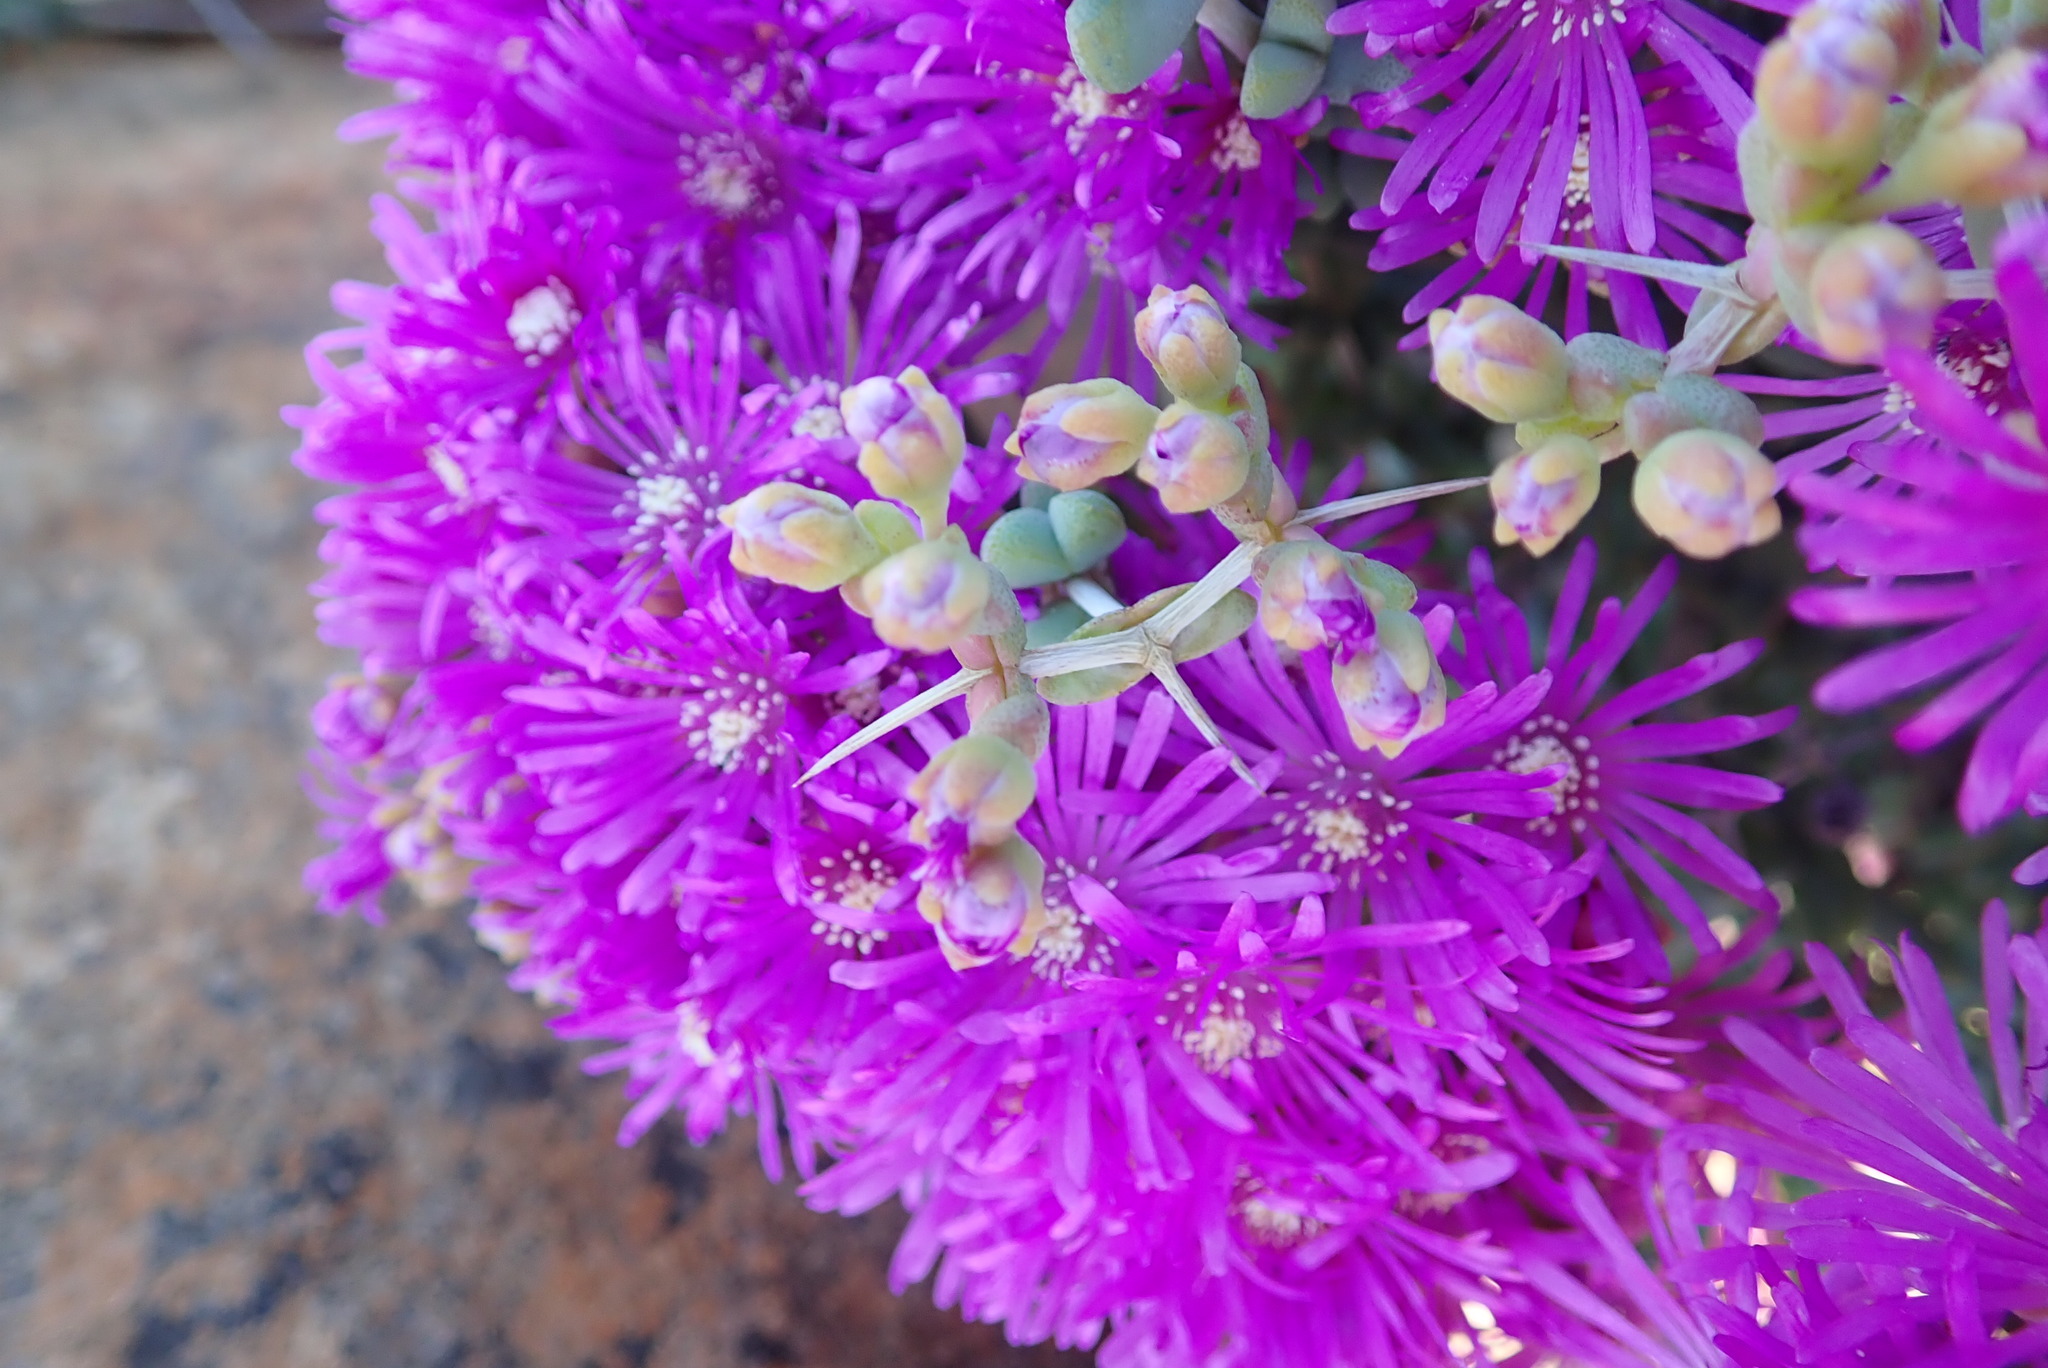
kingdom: Plantae
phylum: Tracheophyta
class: Magnoliopsida
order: Caryophyllales
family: Aizoaceae
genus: Ruschia
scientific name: Ruschia cradockensis
